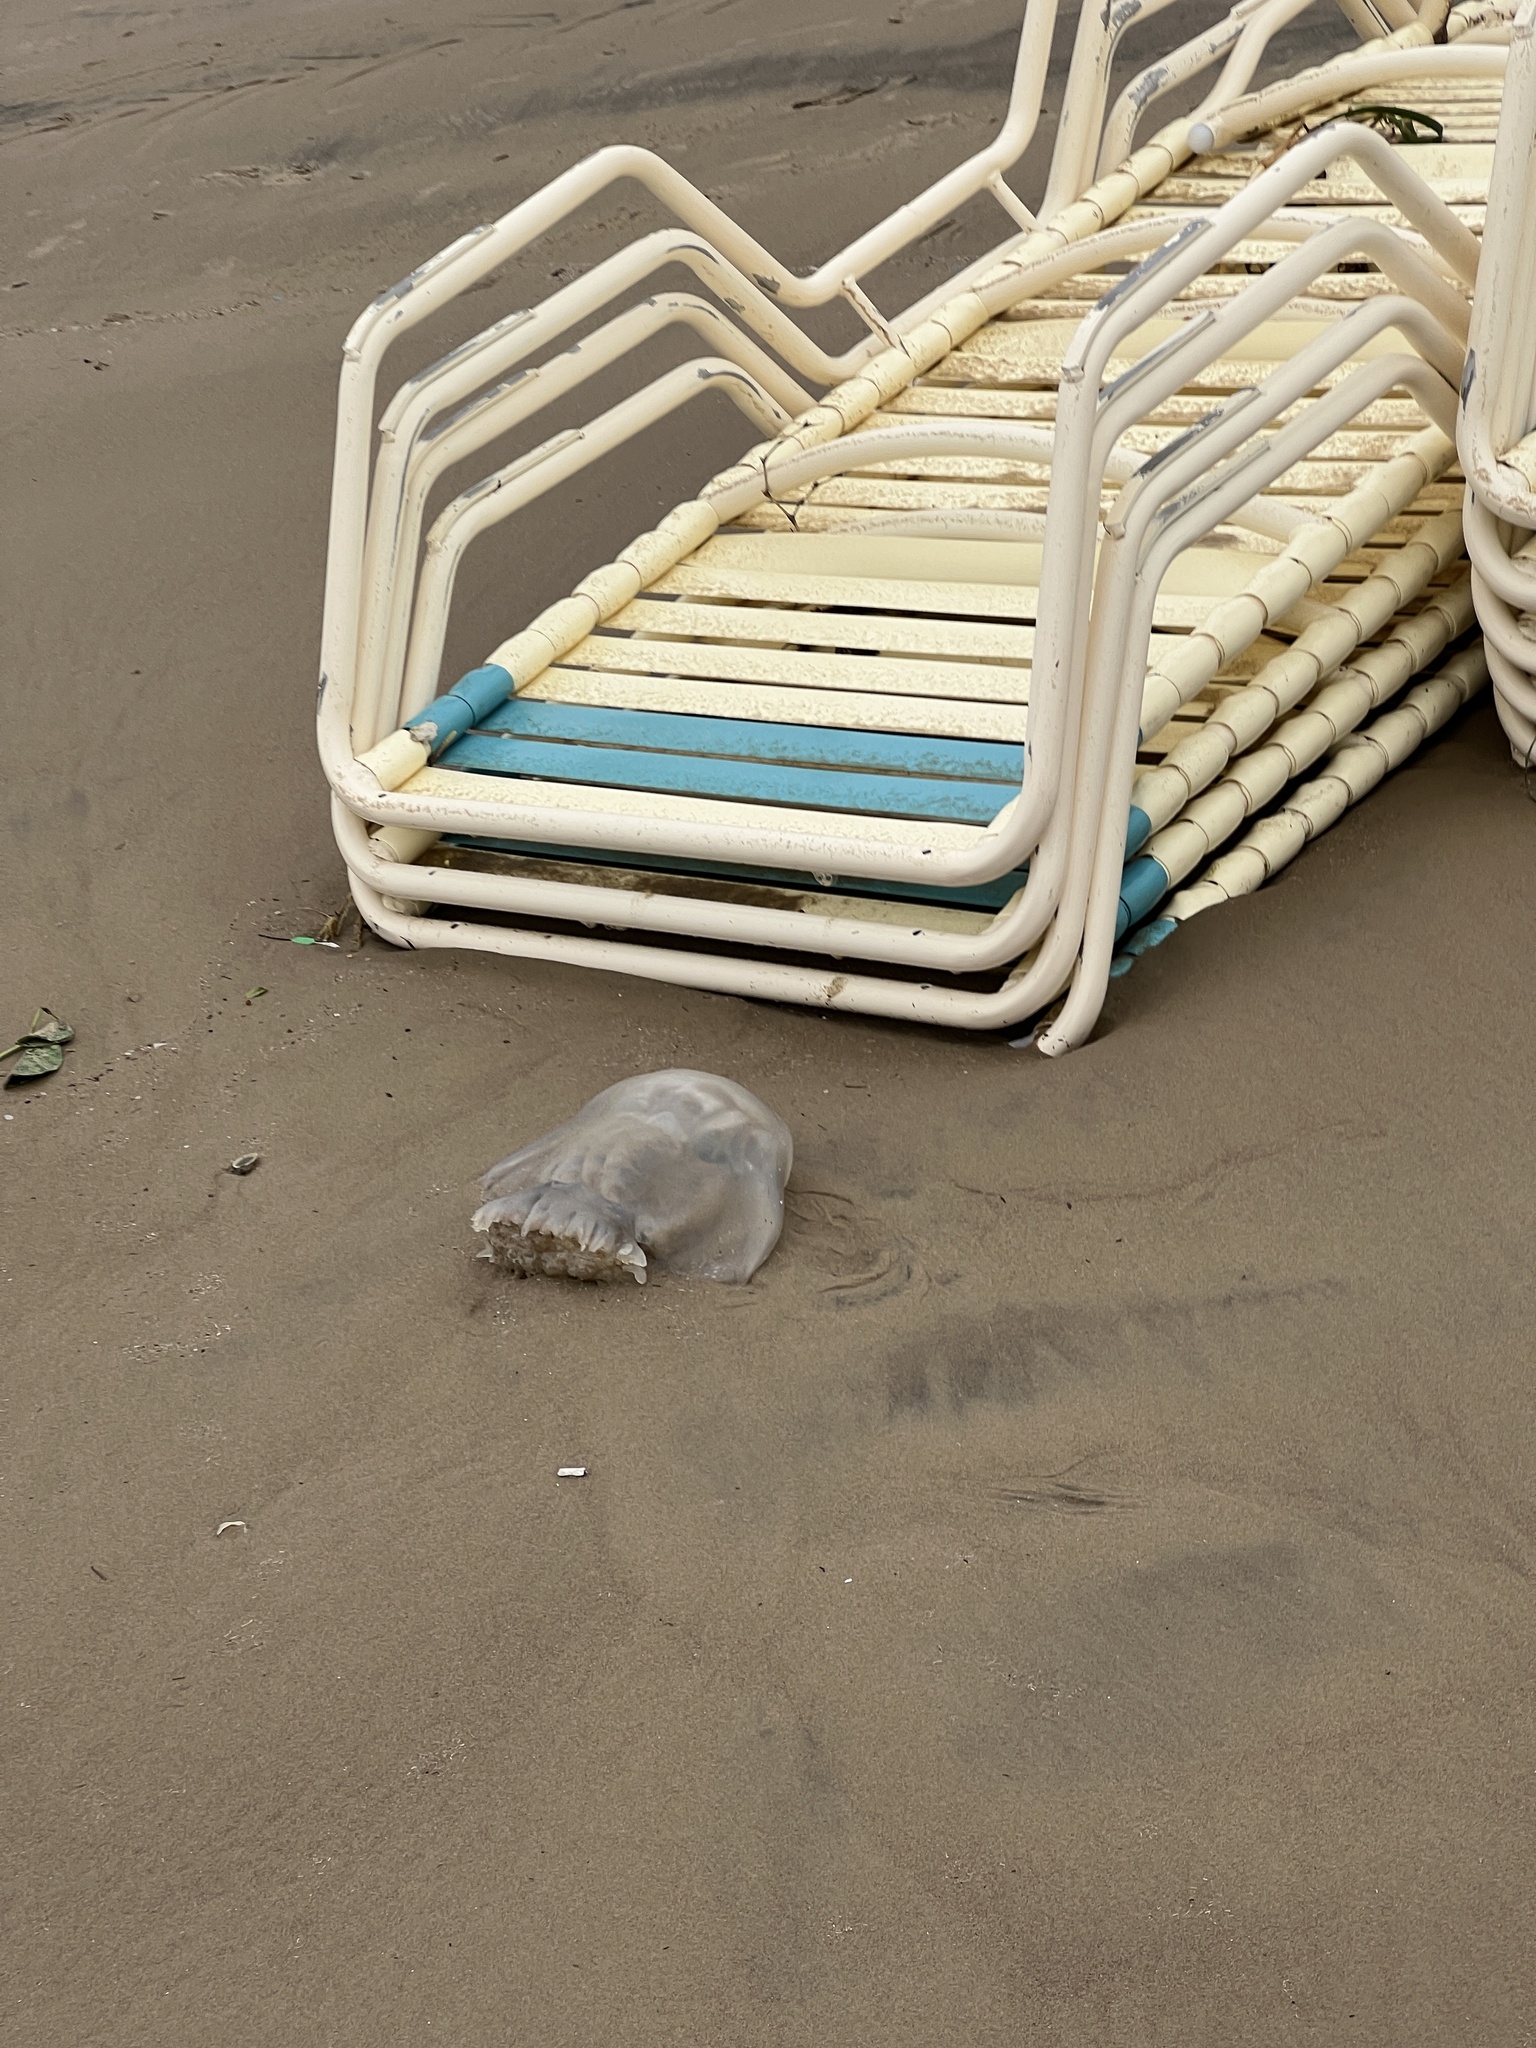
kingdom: Animalia
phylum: Cnidaria
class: Scyphozoa
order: Rhizostomeae
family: Stomolophidae
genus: Stomolophus
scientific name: Stomolophus meleagris
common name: Cabbagehead
